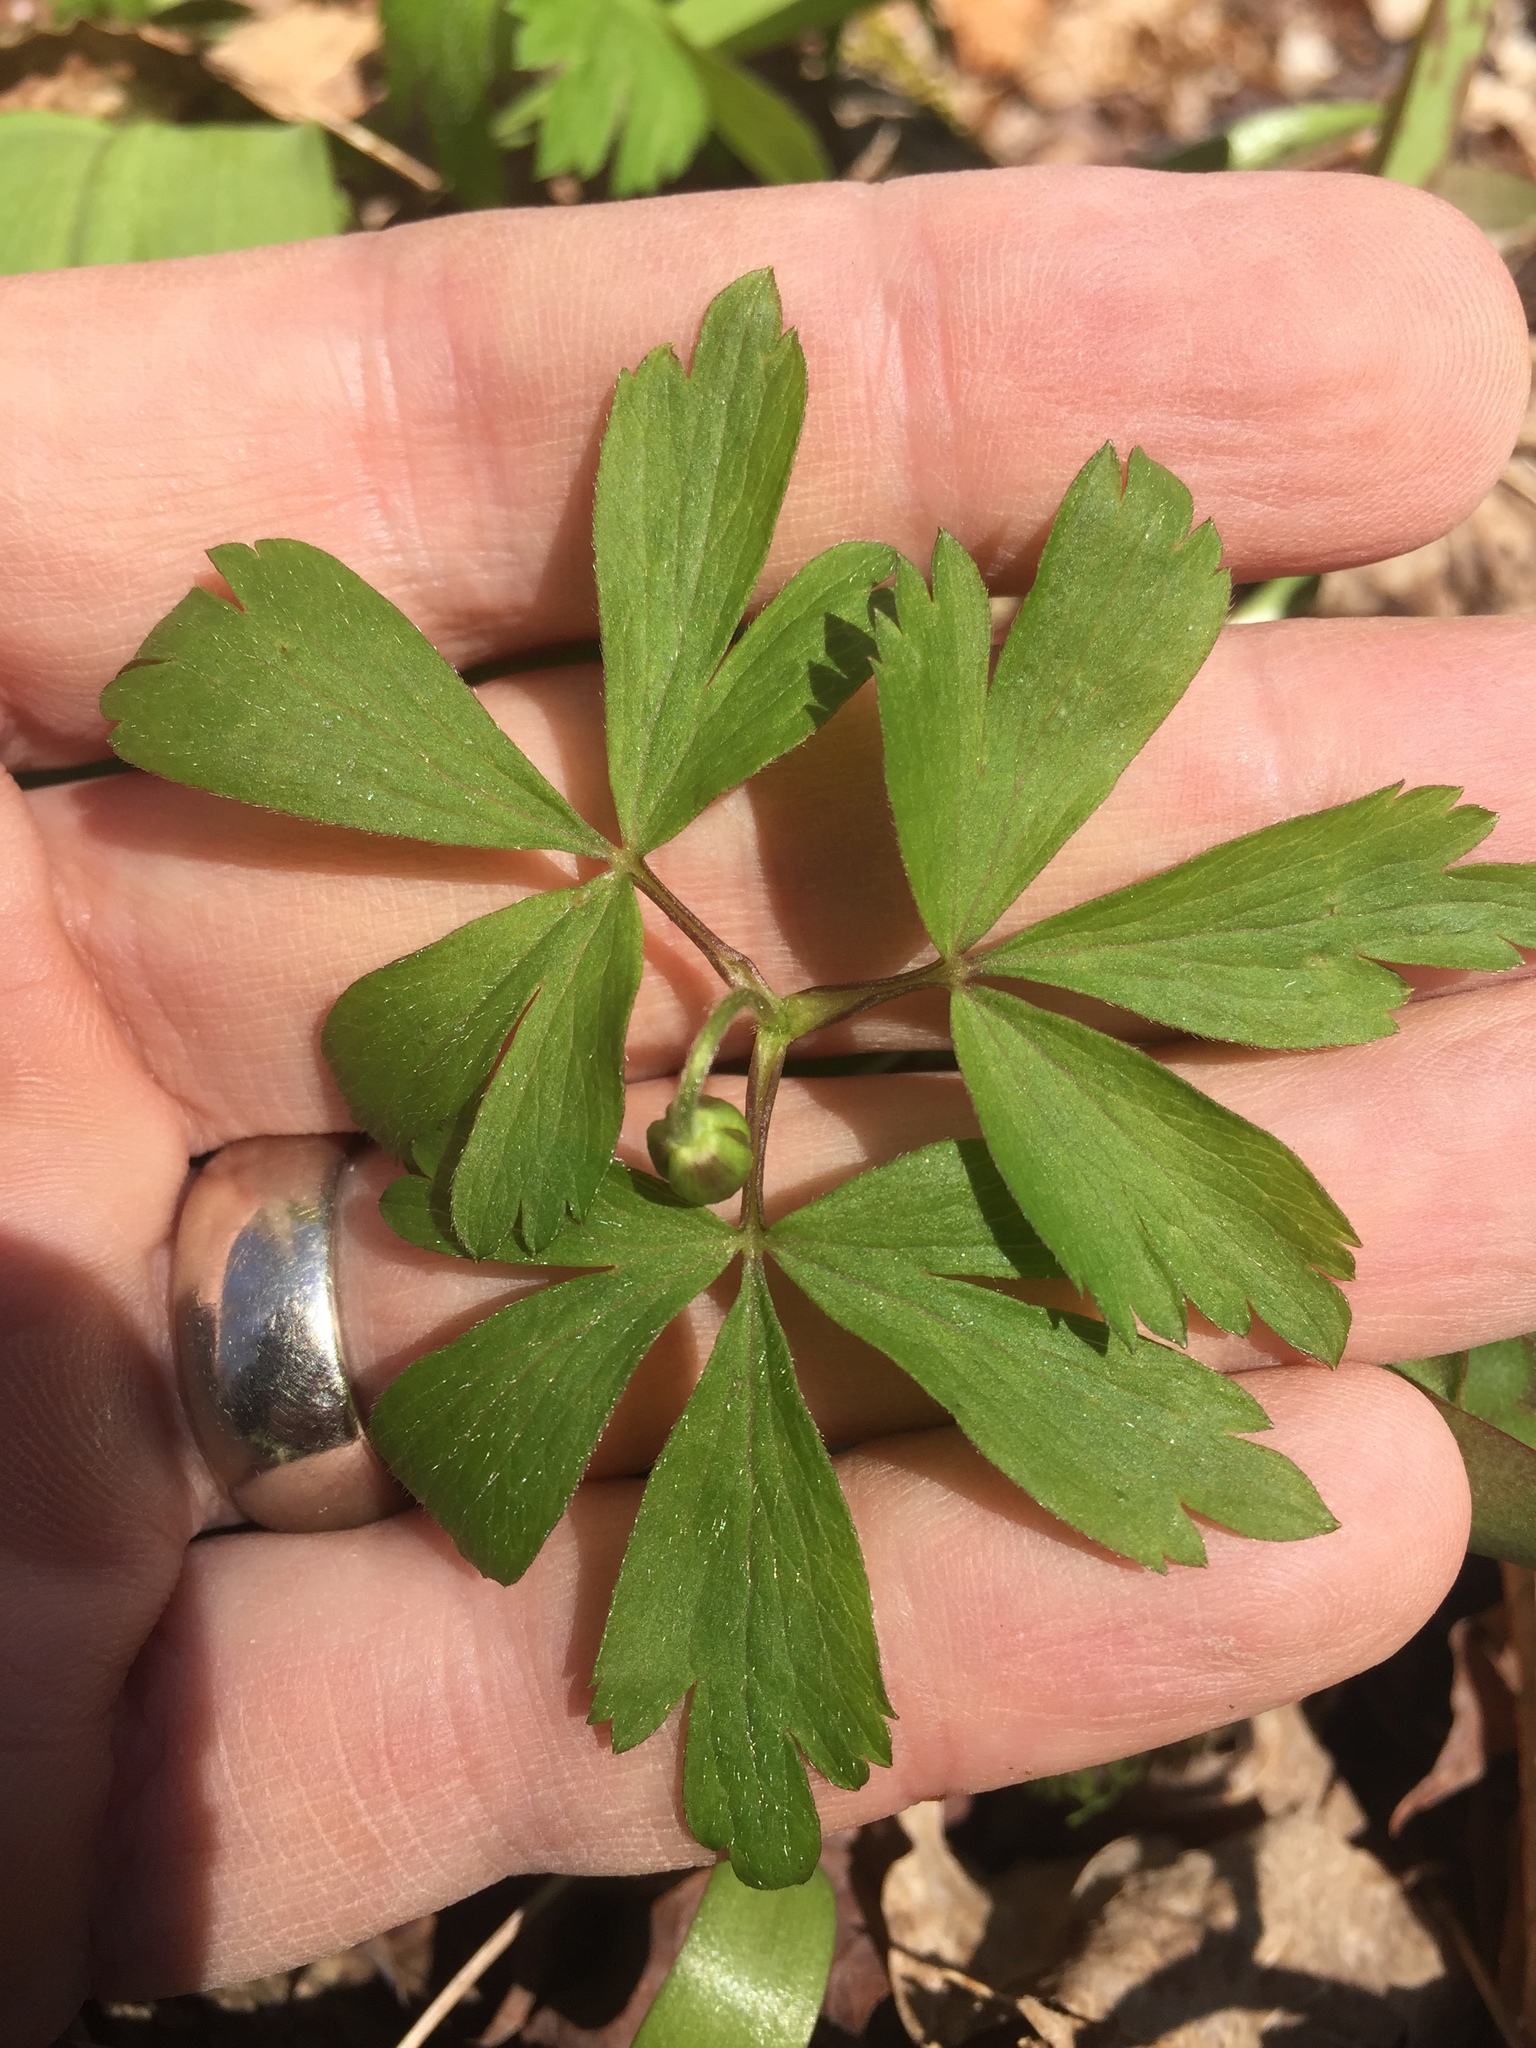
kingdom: Plantae
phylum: Tracheophyta
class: Magnoliopsida
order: Ranunculales
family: Ranunculaceae
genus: Anemone
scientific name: Anemone quinquefolia
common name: Wood anemone
